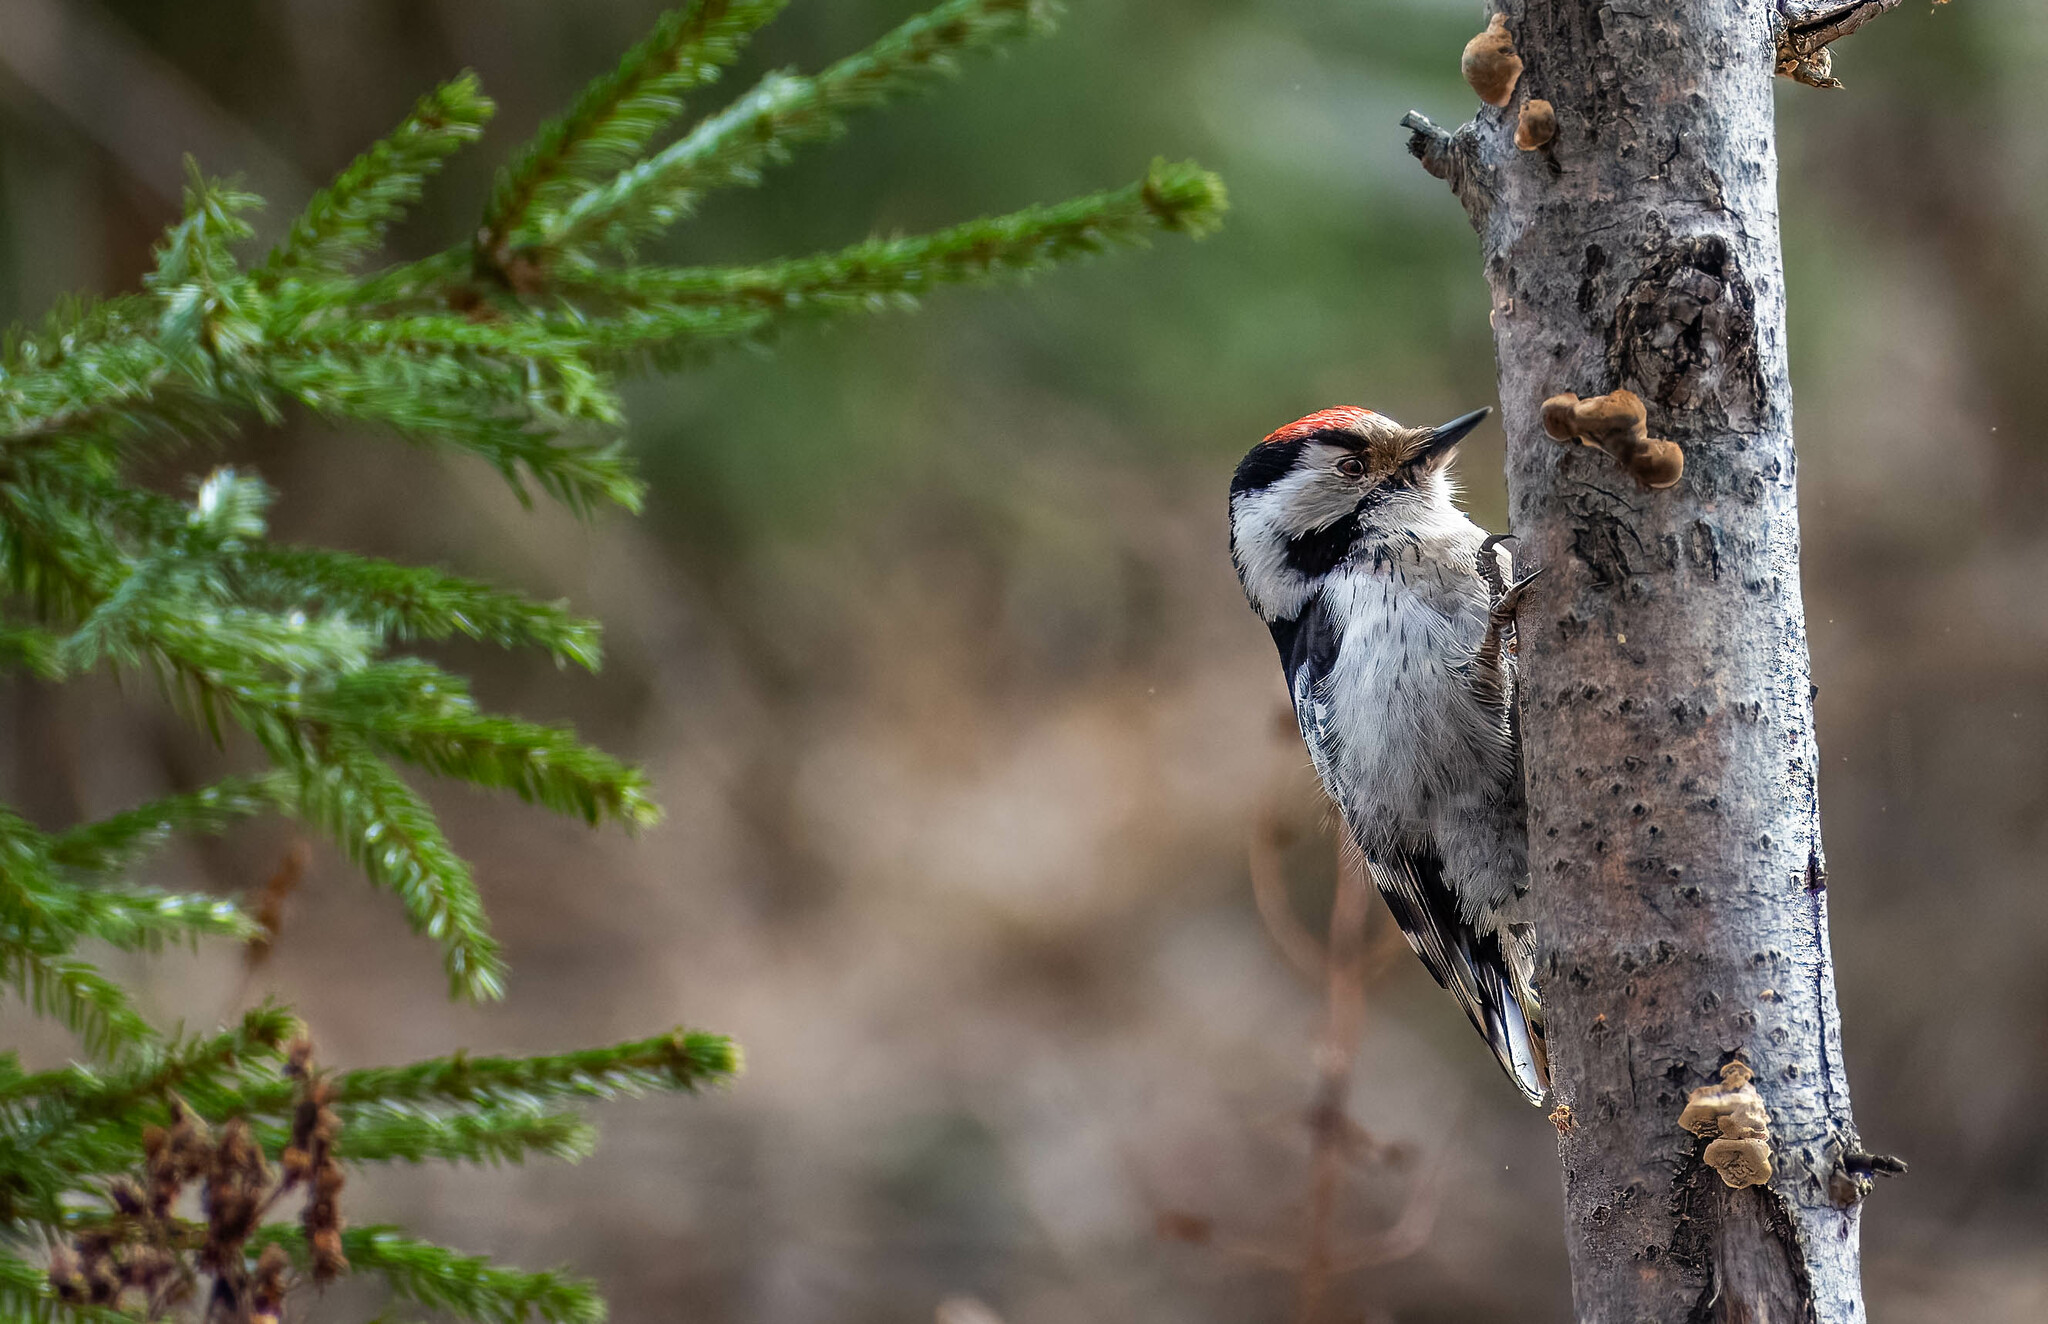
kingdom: Animalia
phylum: Chordata
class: Aves
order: Piciformes
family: Picidae
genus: Dryobates
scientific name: Dryobates minor
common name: Lesser spotted woodpecker
